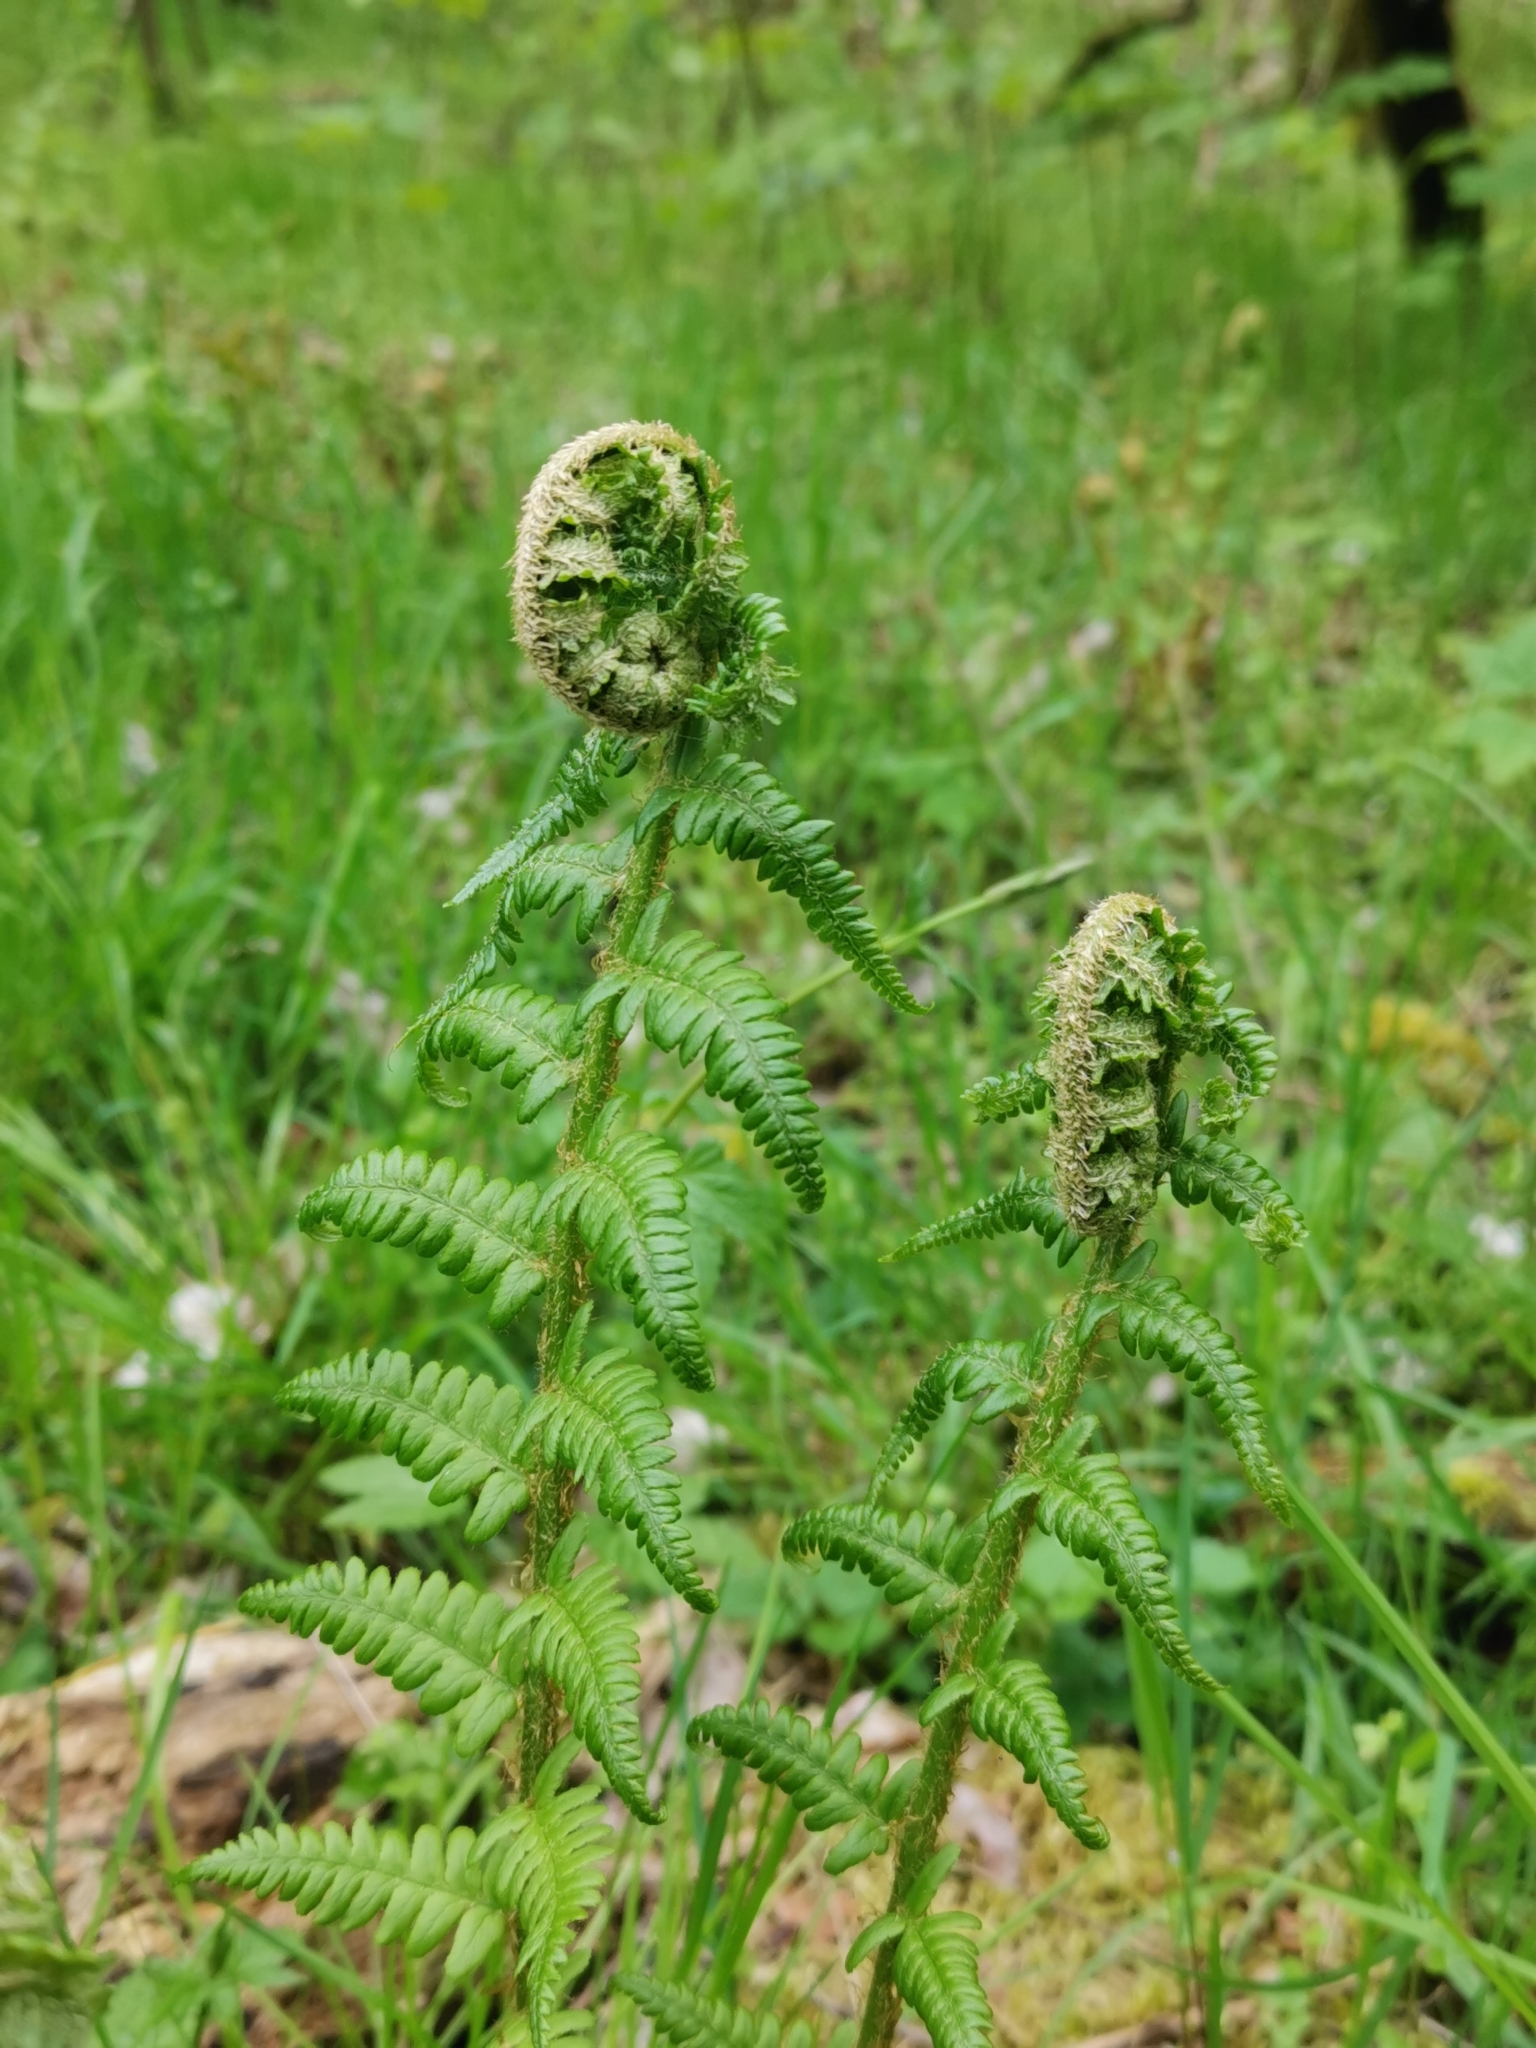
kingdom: Plantae
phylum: Tracheophyta
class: Polypodiopsida
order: Polypodiales
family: Dryopteridaceae
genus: Dryopteris
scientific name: Dryopteris filix-mas
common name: Male fern
